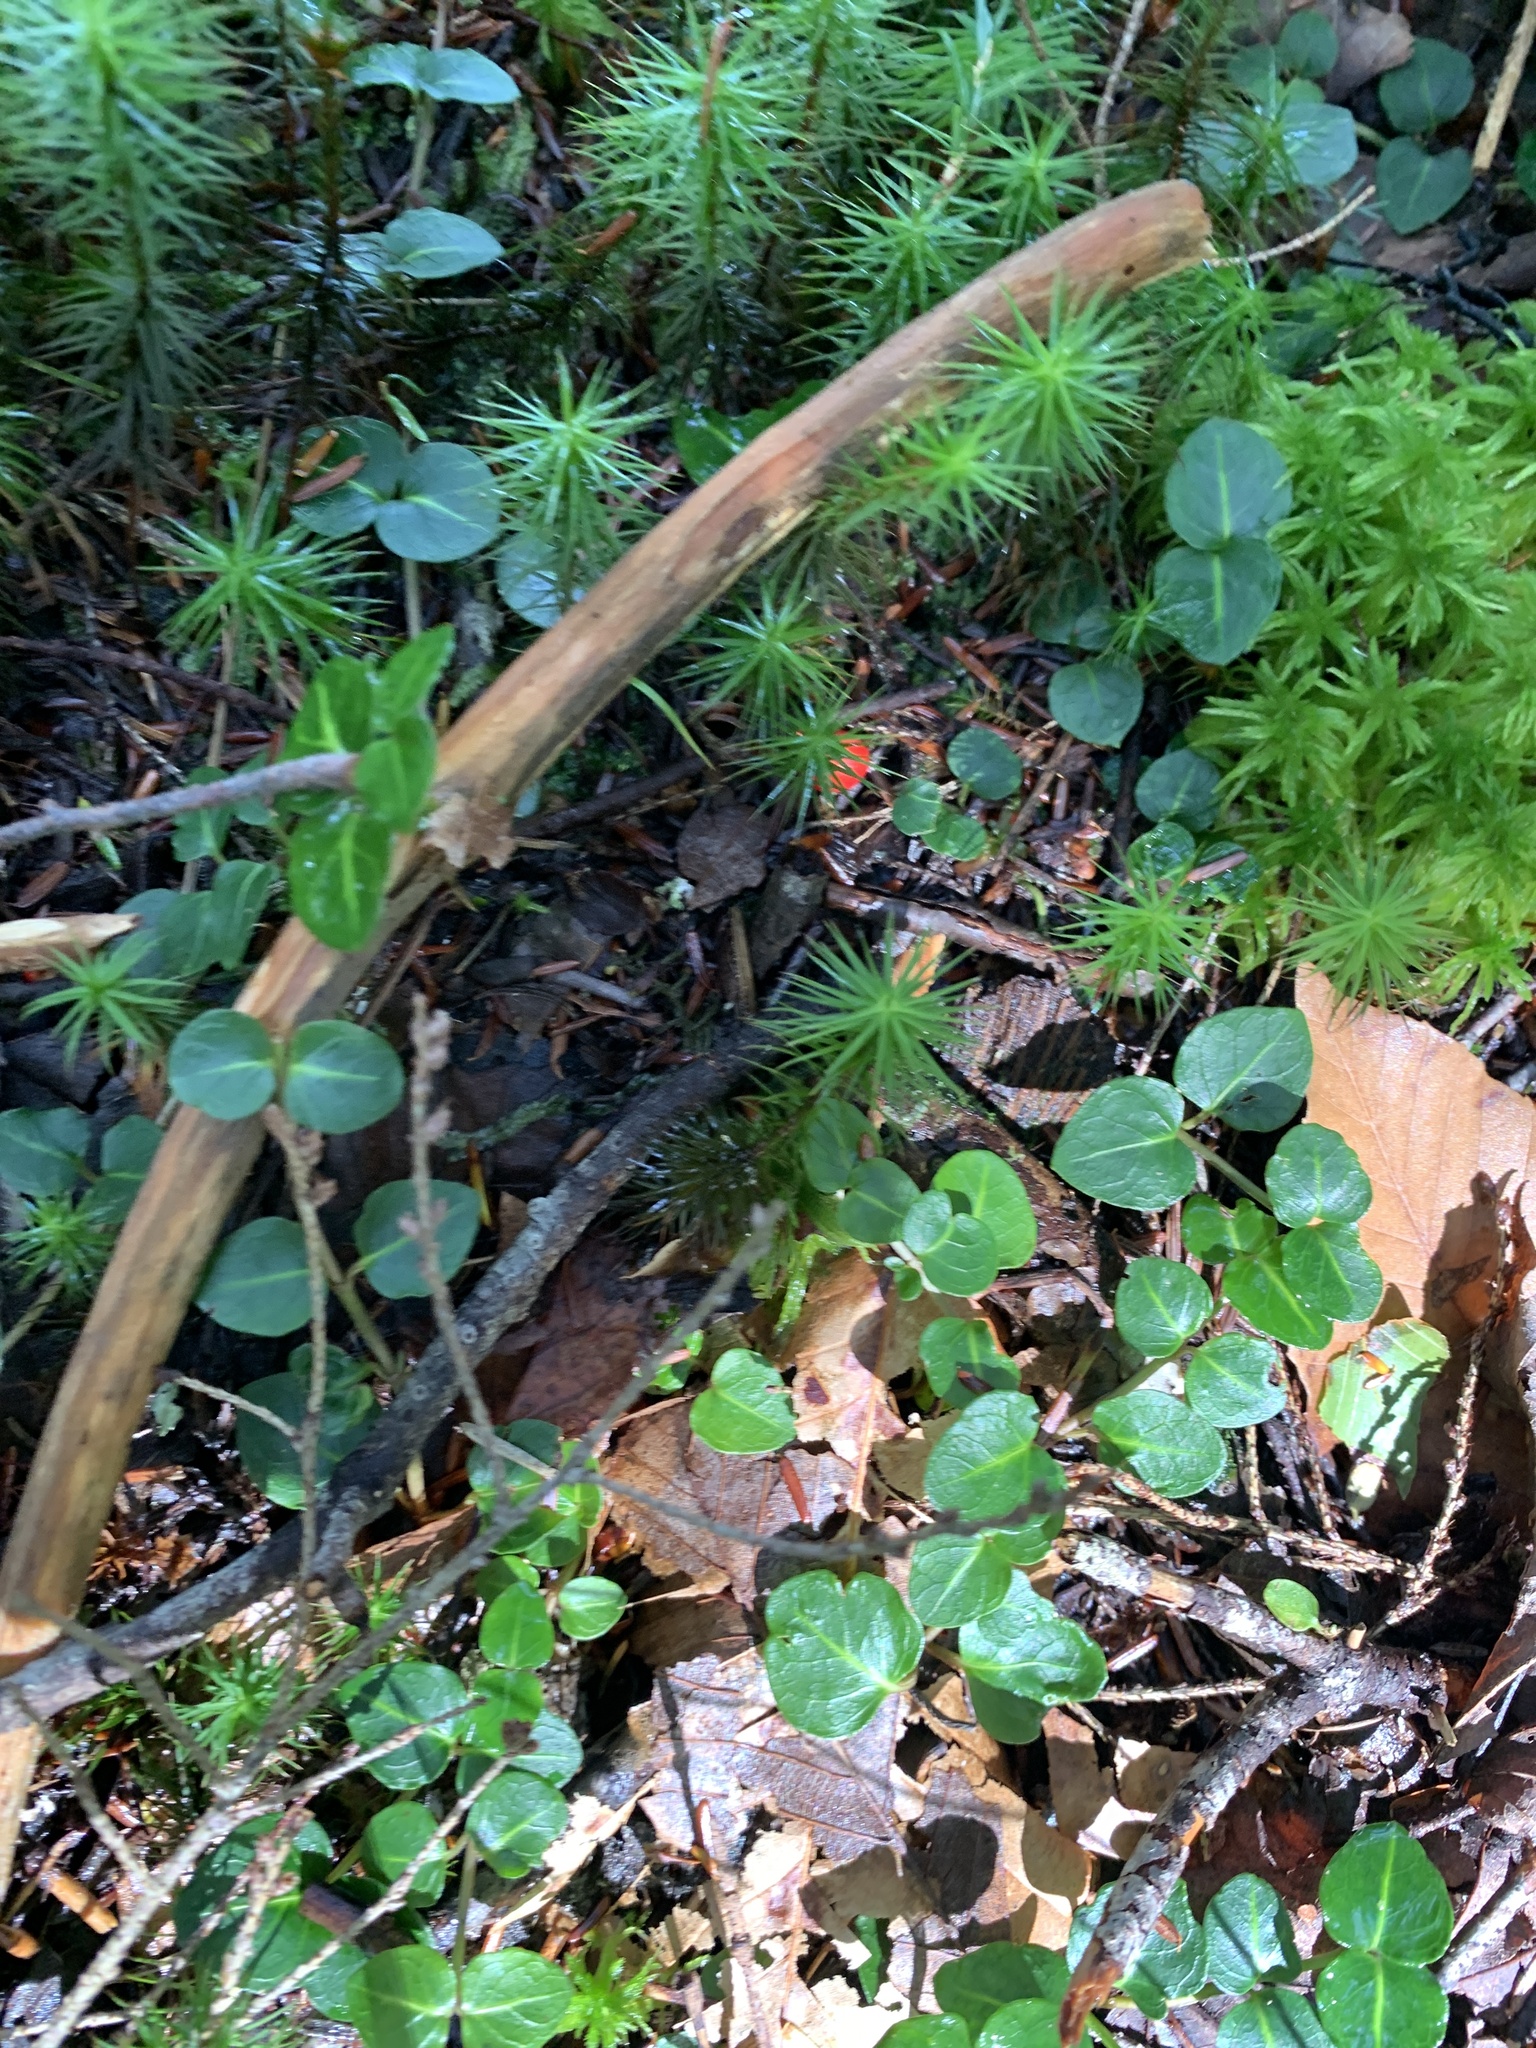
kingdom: Plantae
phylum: Tracheophyta
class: Magnoliopsida
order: Gentianales
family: Rubiaceae
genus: Mitchella
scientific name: Mitchella repens
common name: Partridge-berry
